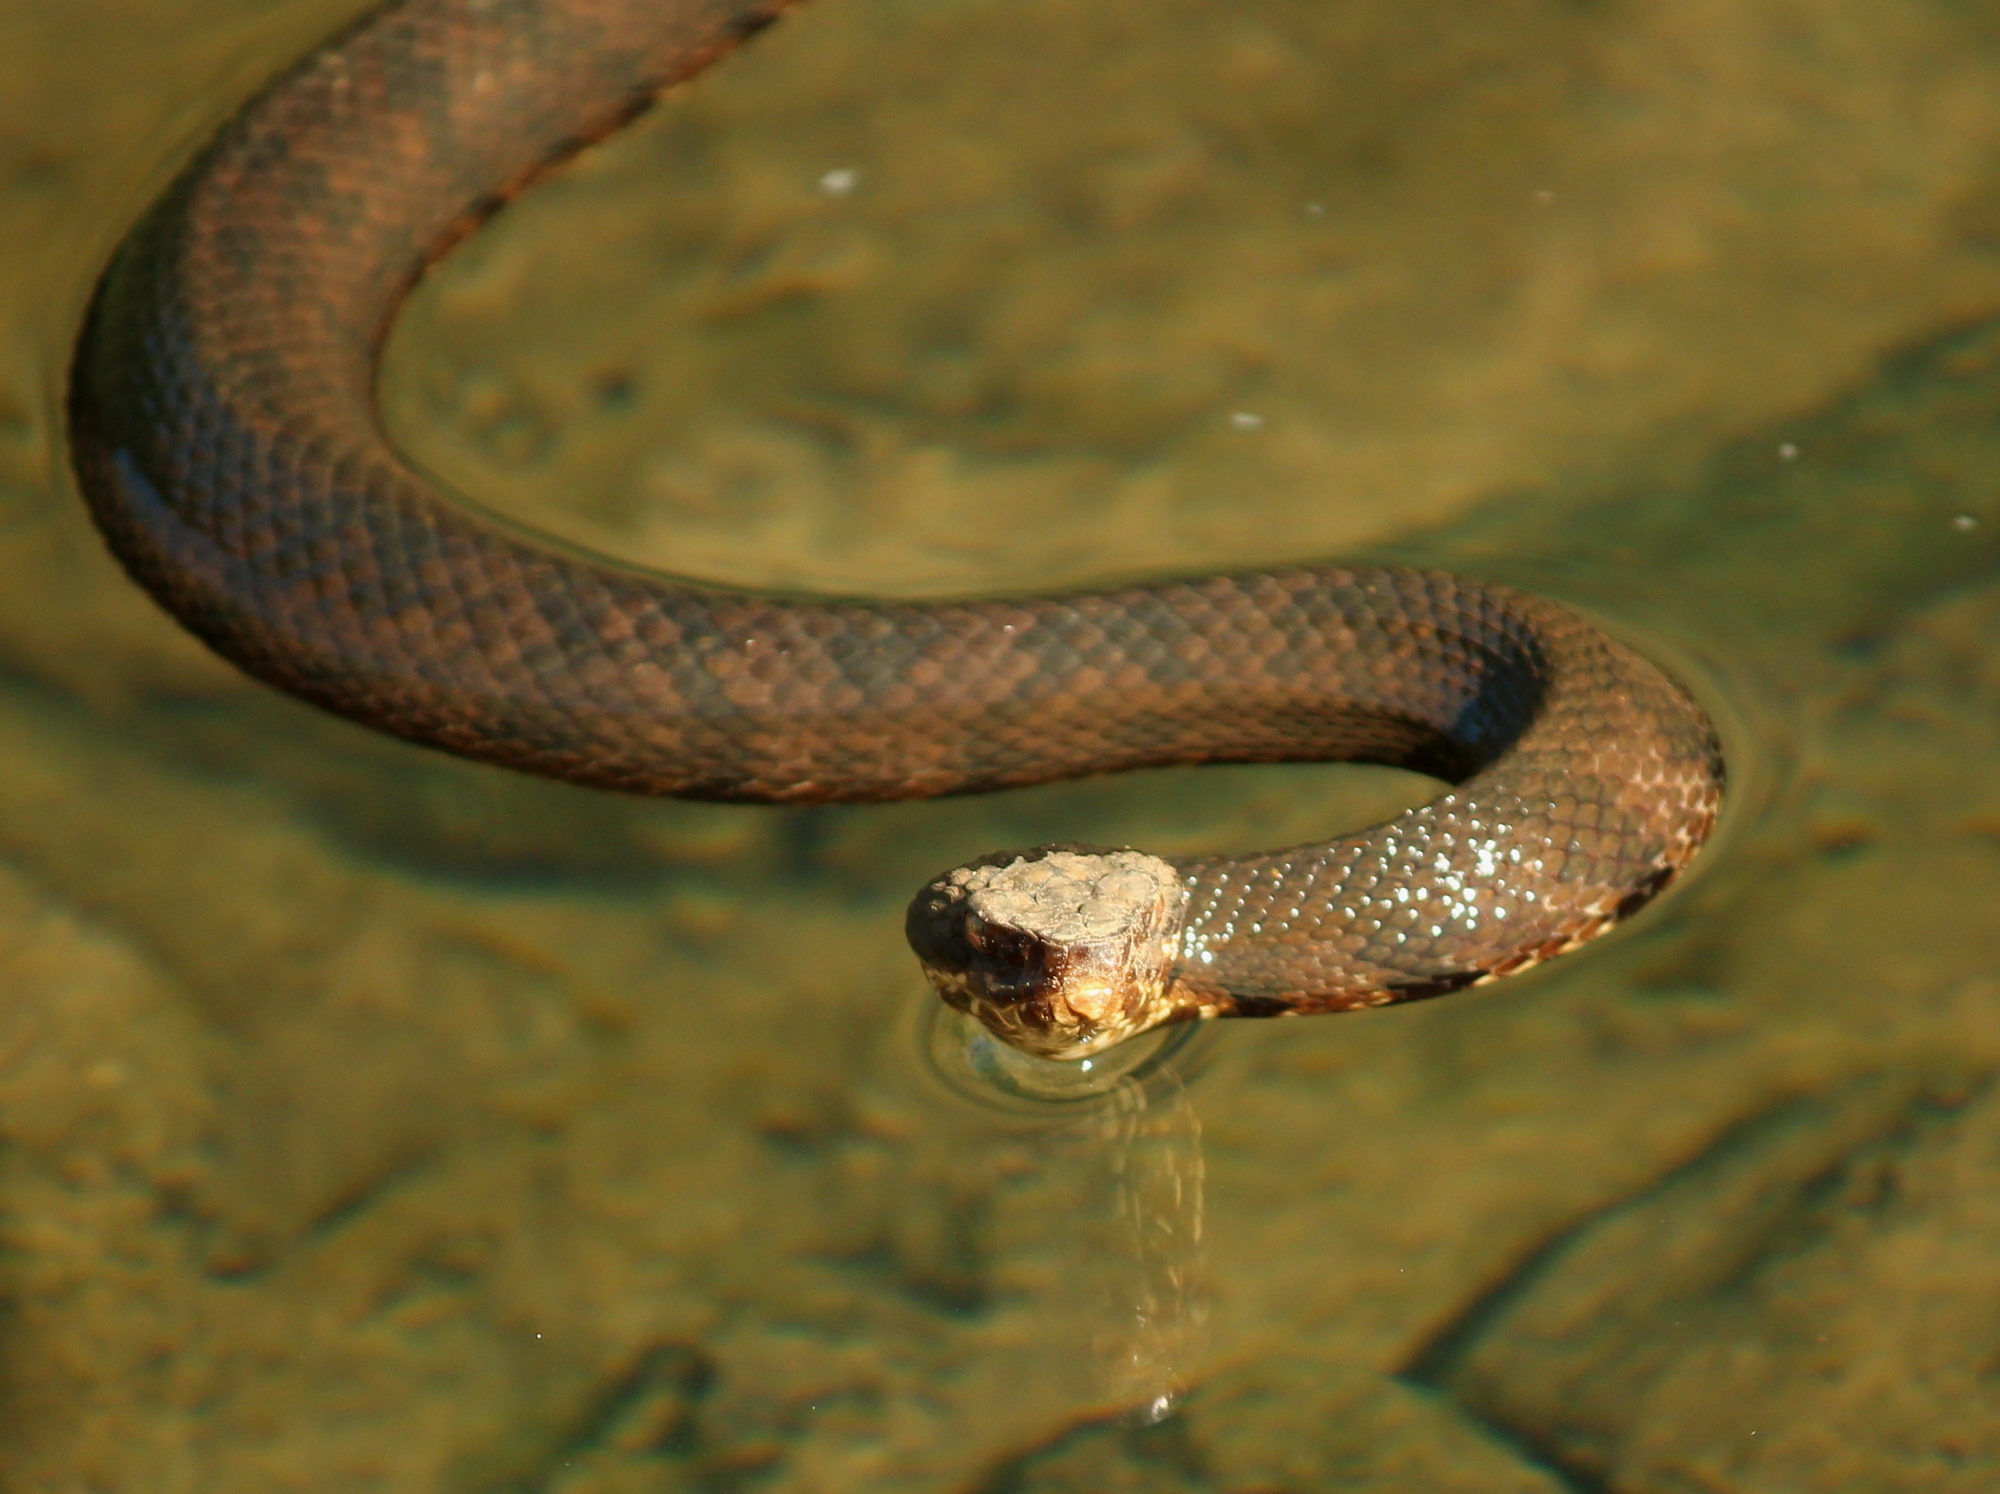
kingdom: Animalia
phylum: Chordata
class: Squamata
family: Viperidae
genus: Agkistrodon
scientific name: Agkistrodon piscivorus
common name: Cottonmouth
